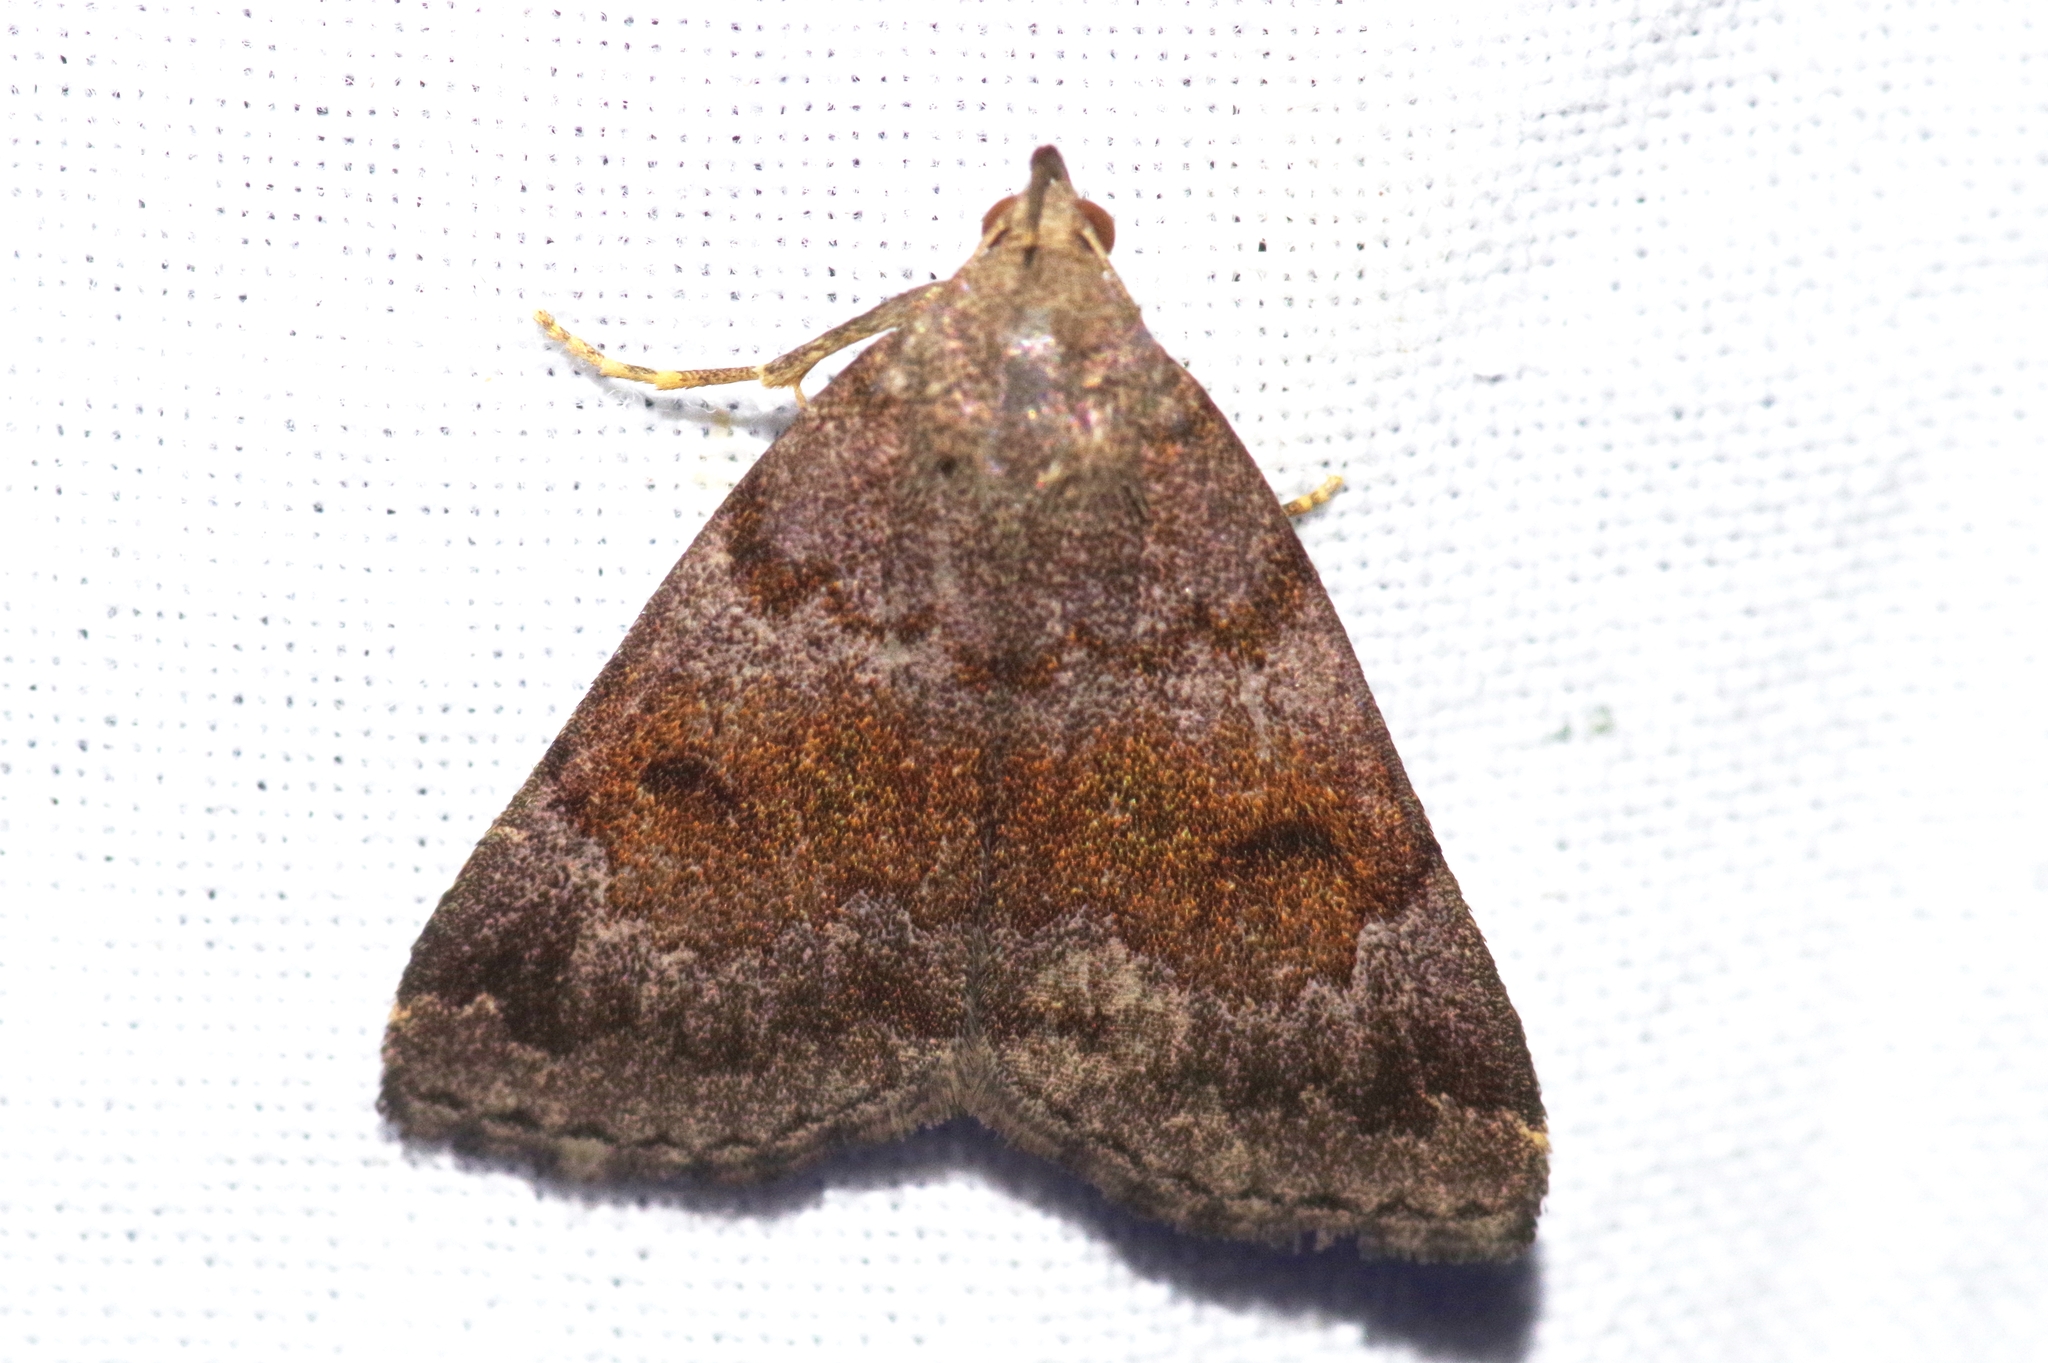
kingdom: Animalia
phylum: Arthropoda
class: Insecta
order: Lepidoptera
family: Erebidae
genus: Zanclognatha
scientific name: Zanclognatha
